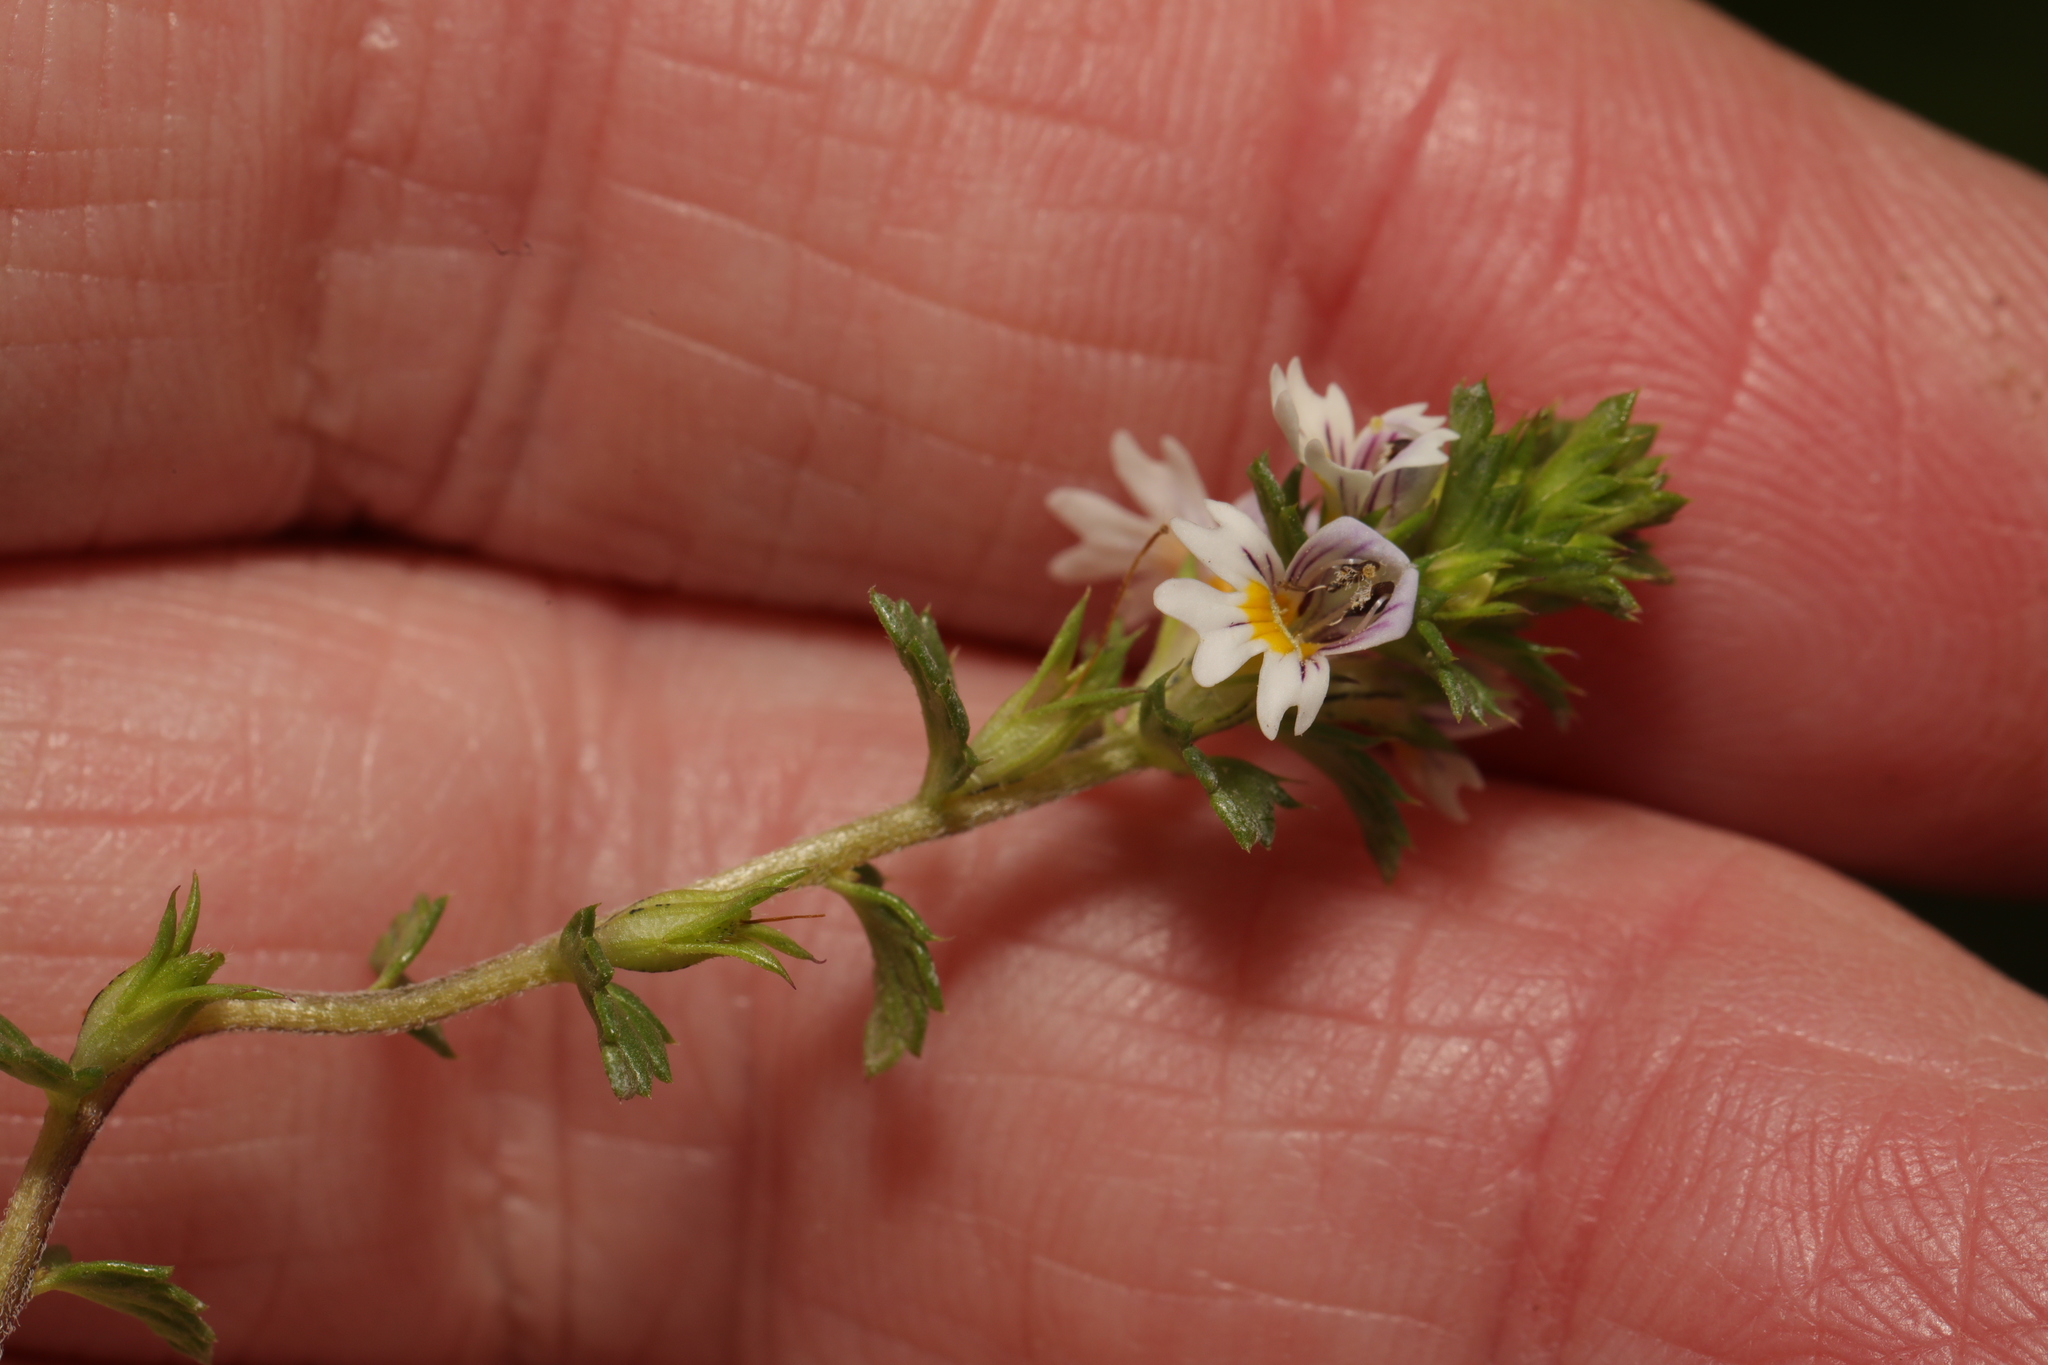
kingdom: Plantae
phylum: Tracheophyta
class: Magnoliopsida
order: Lamiales
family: Orobanchaceae
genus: Euphrasia
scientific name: Euphrasia officinalis
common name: Eyebright
